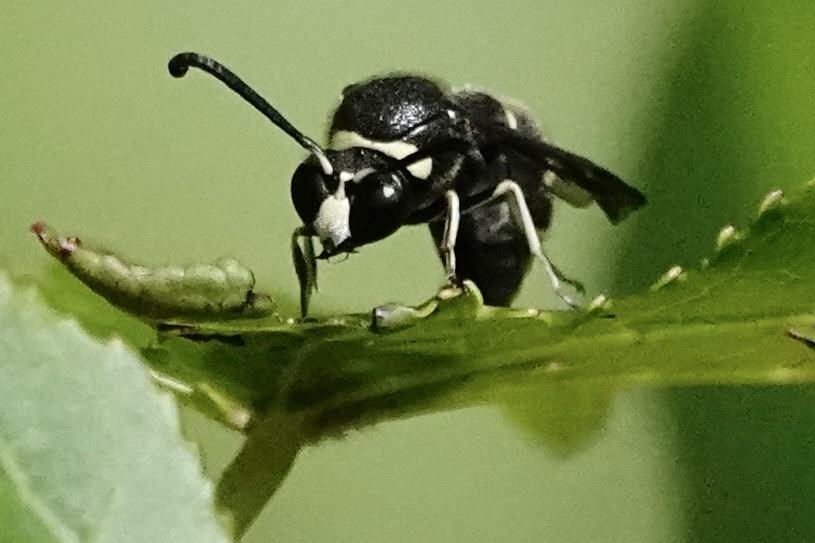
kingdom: Animalia
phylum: Arthropoda
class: Insecta
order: Hymenoptera
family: Vespidae
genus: Eumenes
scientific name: Eumenes fraternus
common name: Fraternal potter wasp
